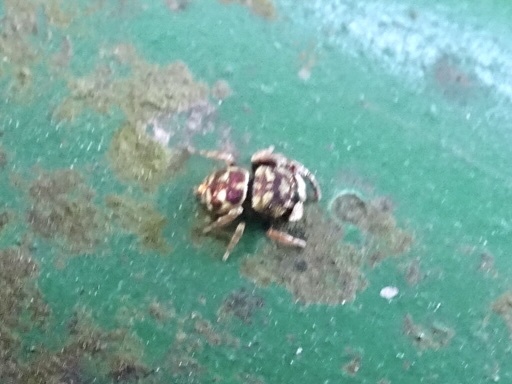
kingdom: Animalia
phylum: Arthropoda
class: Arachnida
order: Araneae
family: Salticidae
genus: Irura
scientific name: Irura bidenticulata
